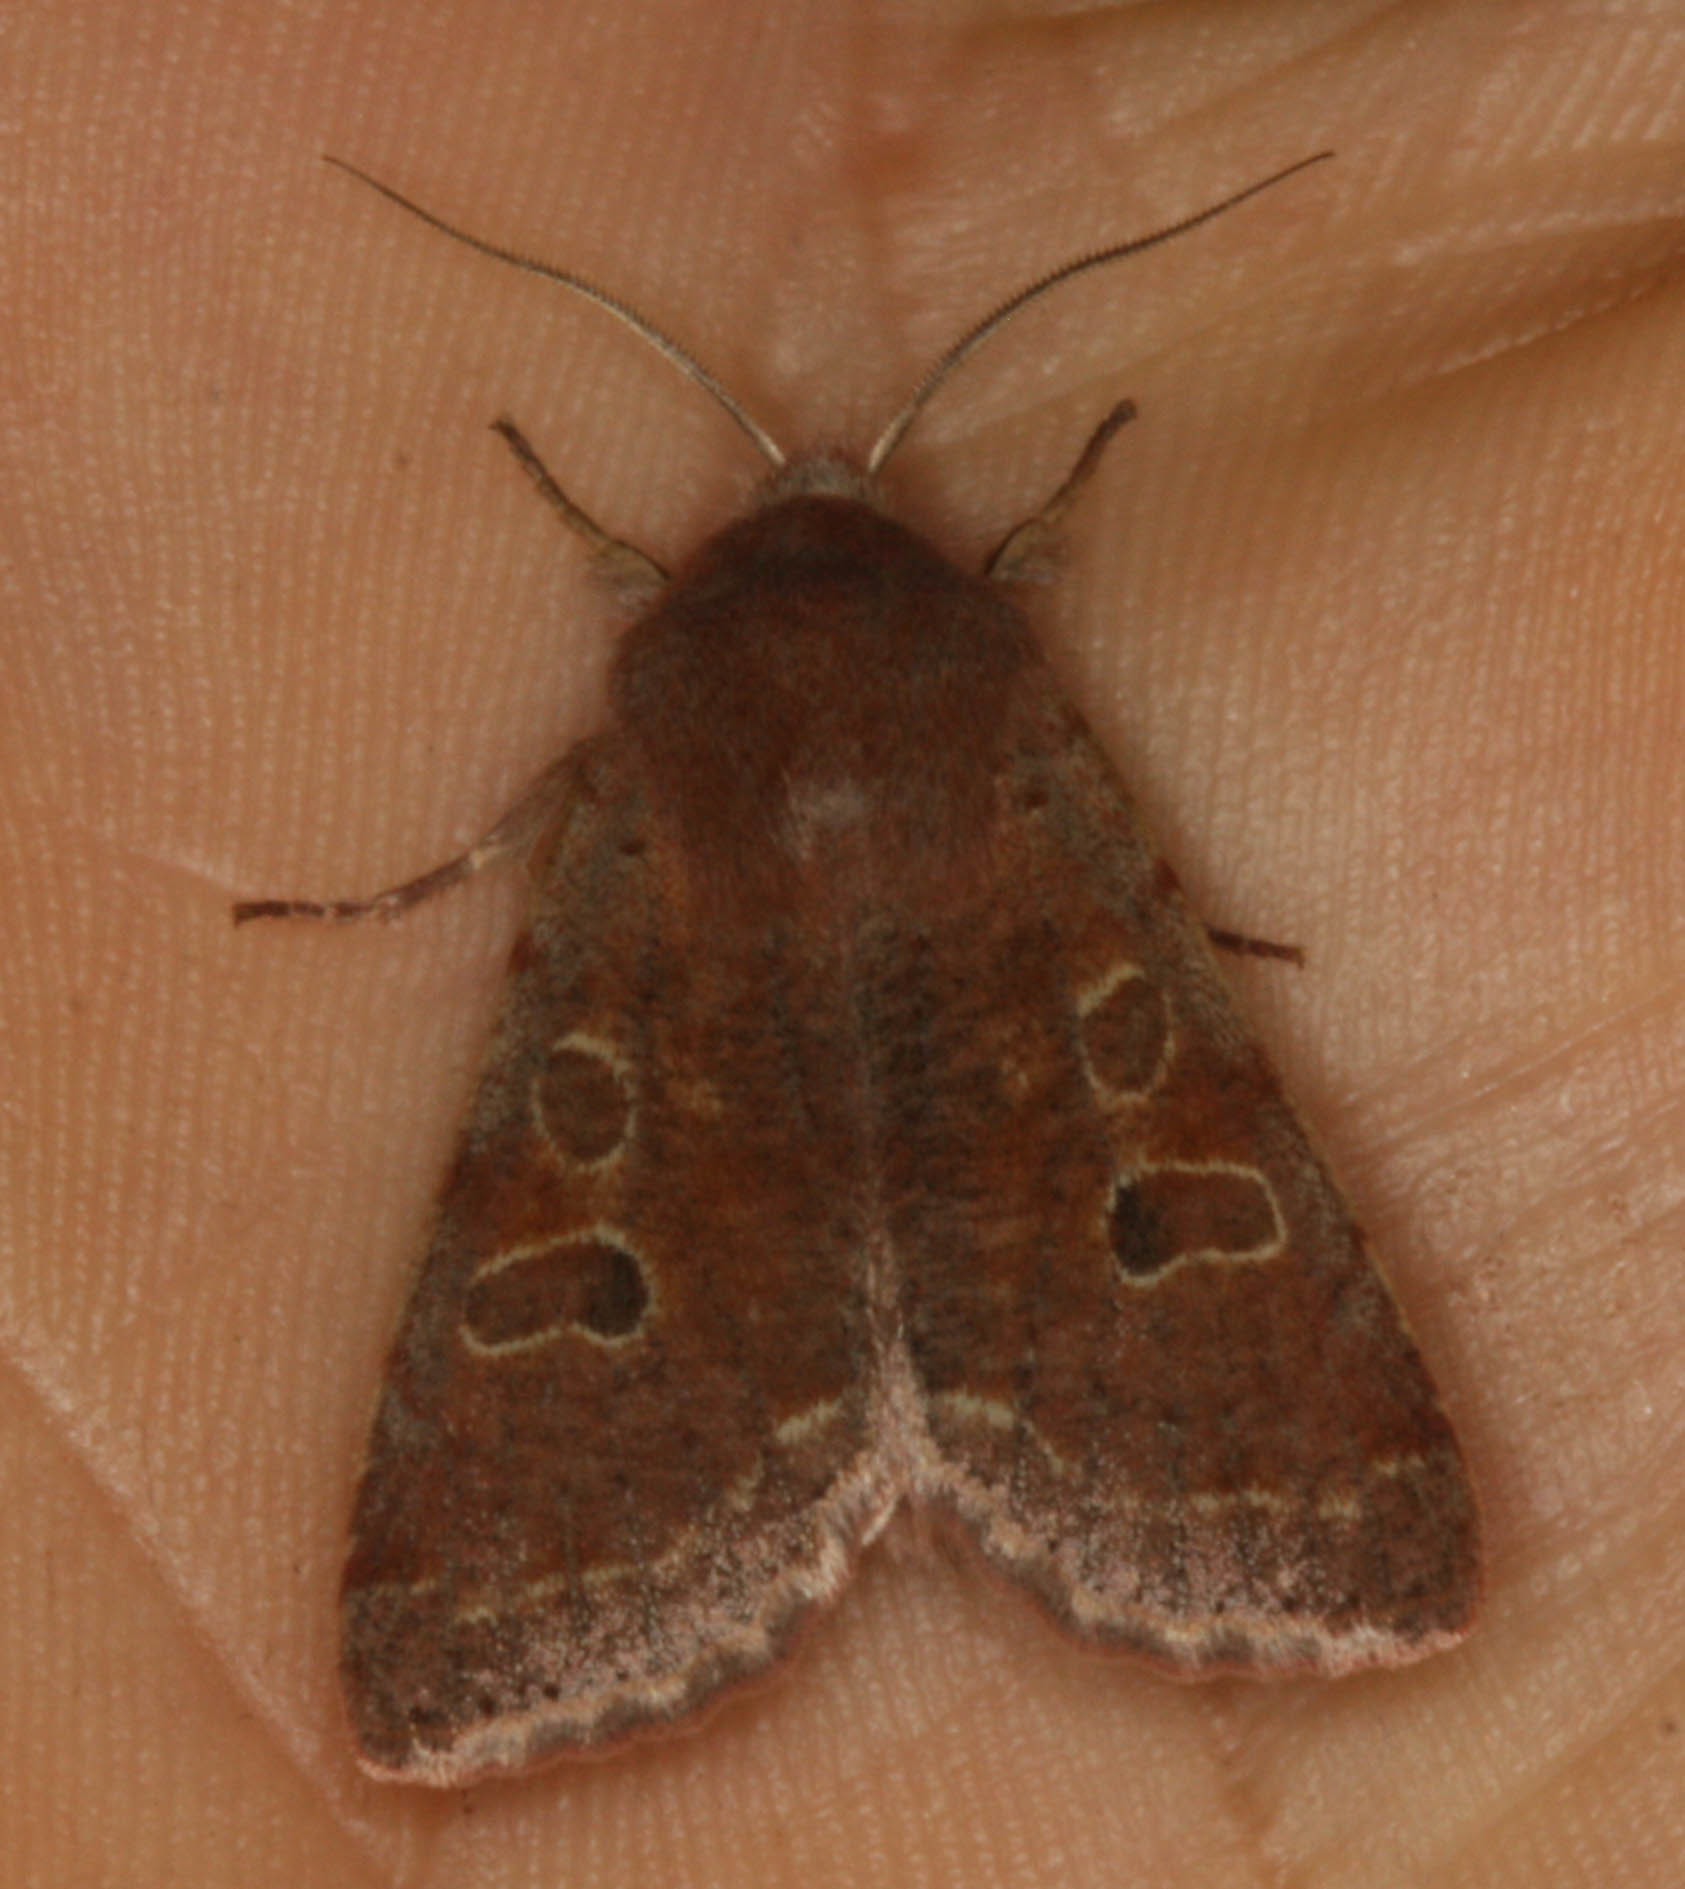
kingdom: Animalia
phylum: Arthropoda
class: Insecta
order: Lepidoptera
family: Noctuidae
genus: Orthosia
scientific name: Orthosia hibisci
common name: Green fruitworm
